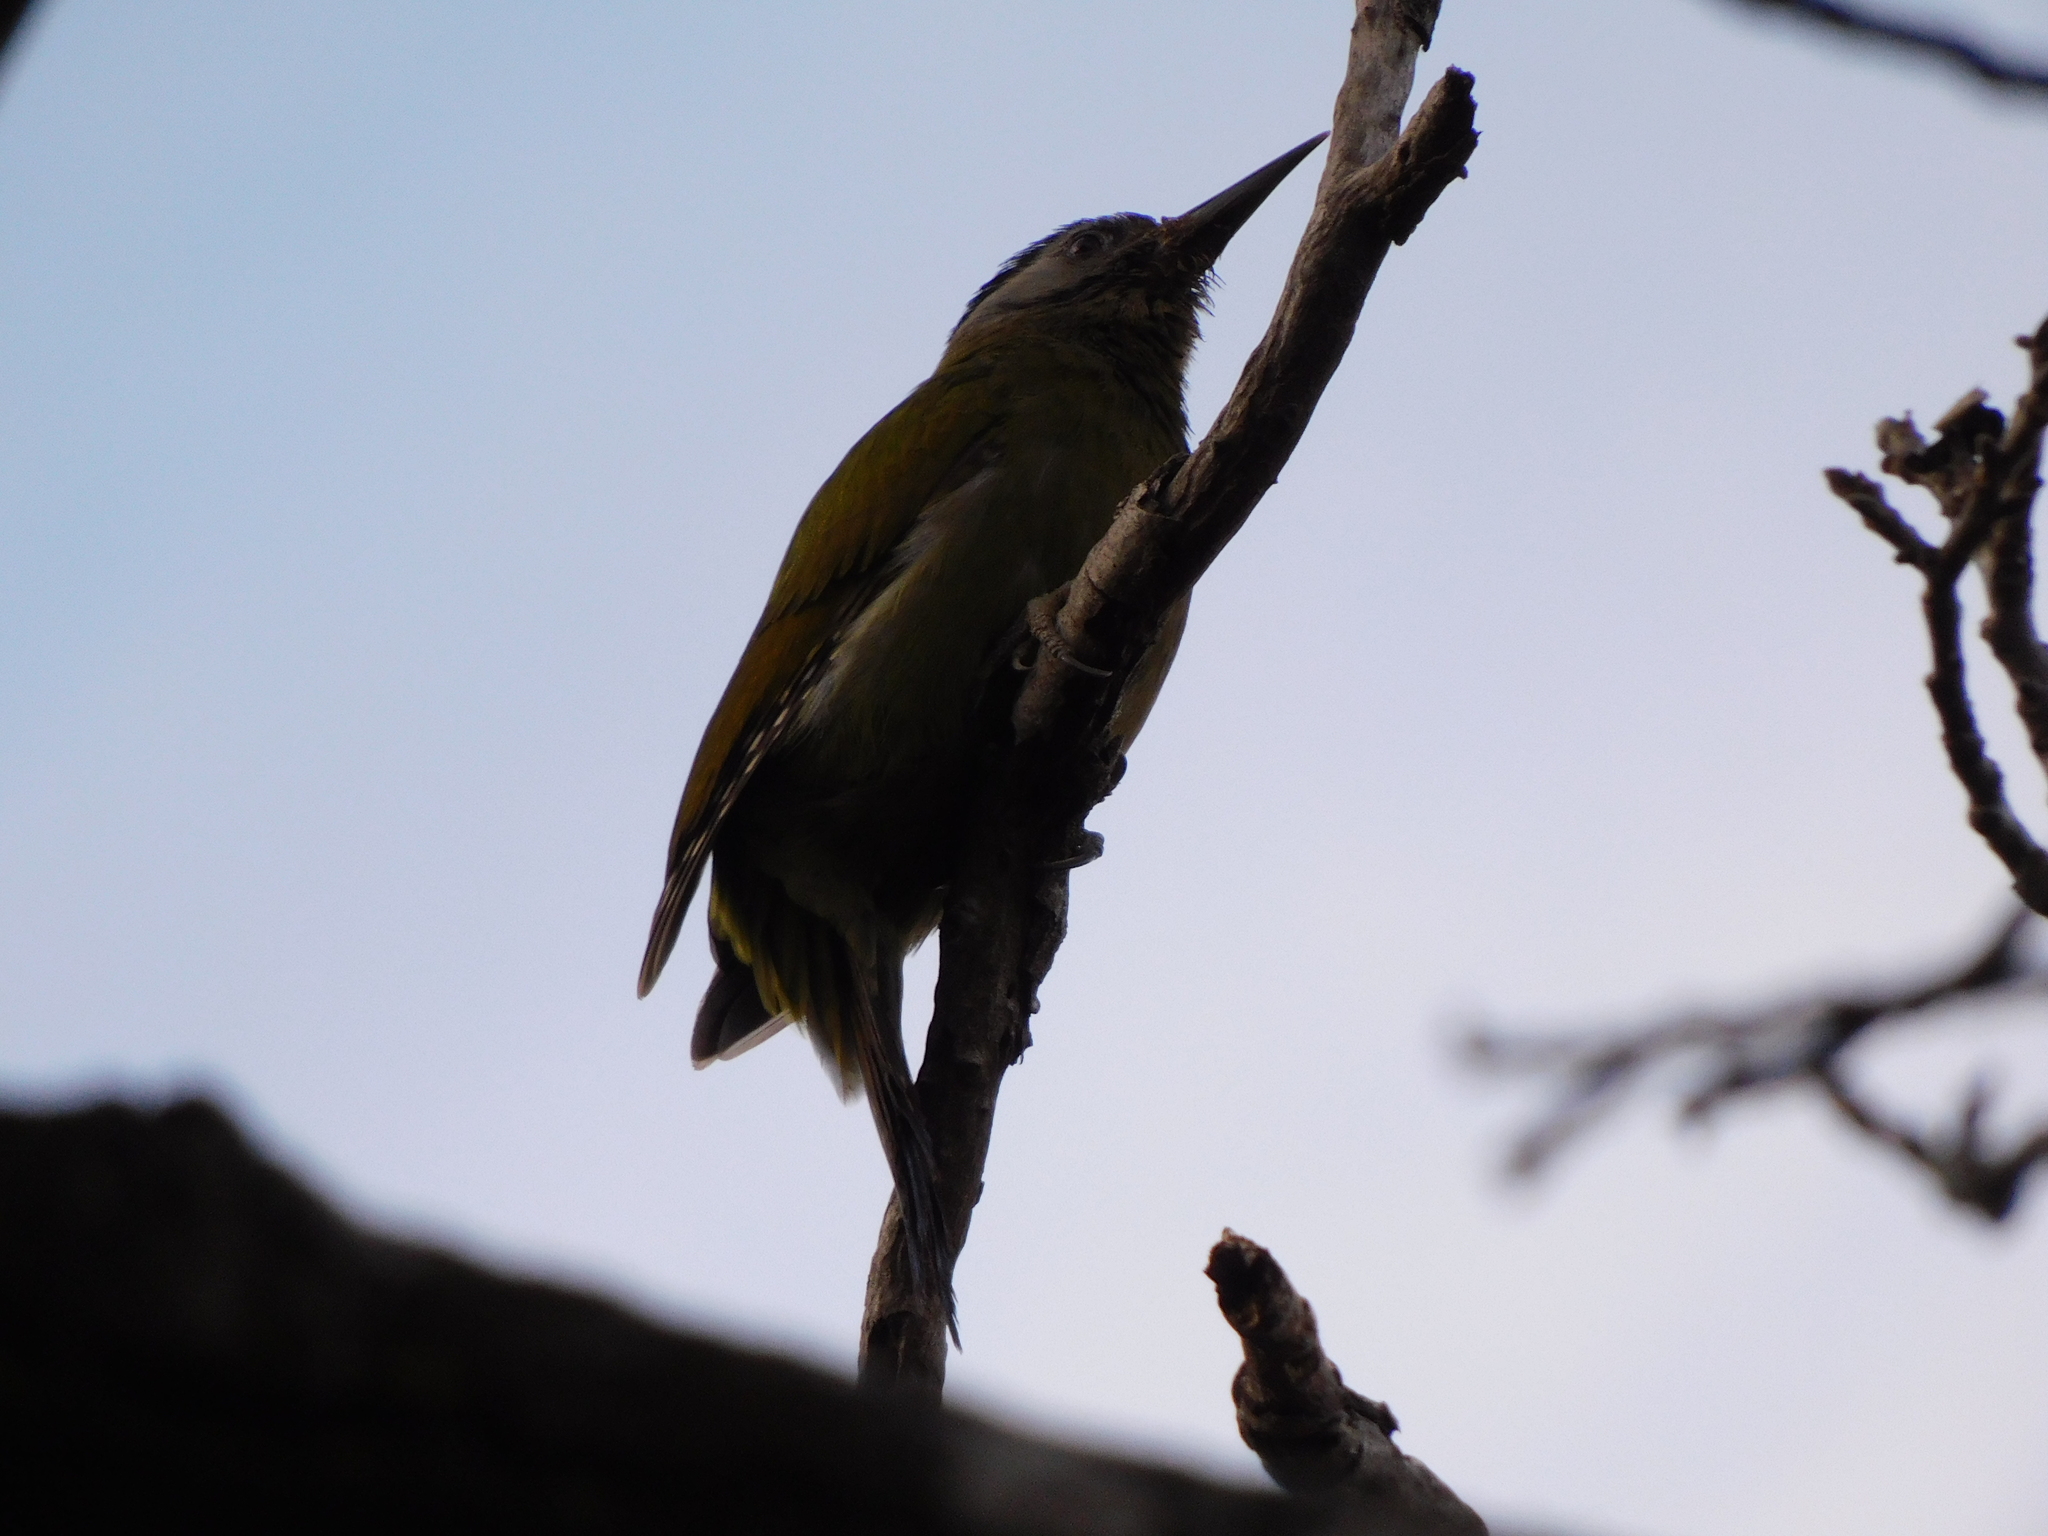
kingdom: Animalia
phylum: Chordata
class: Aves
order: Piciformes
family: Picidae
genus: Picus
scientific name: Picus canus
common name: Grey-headed woodpecker
